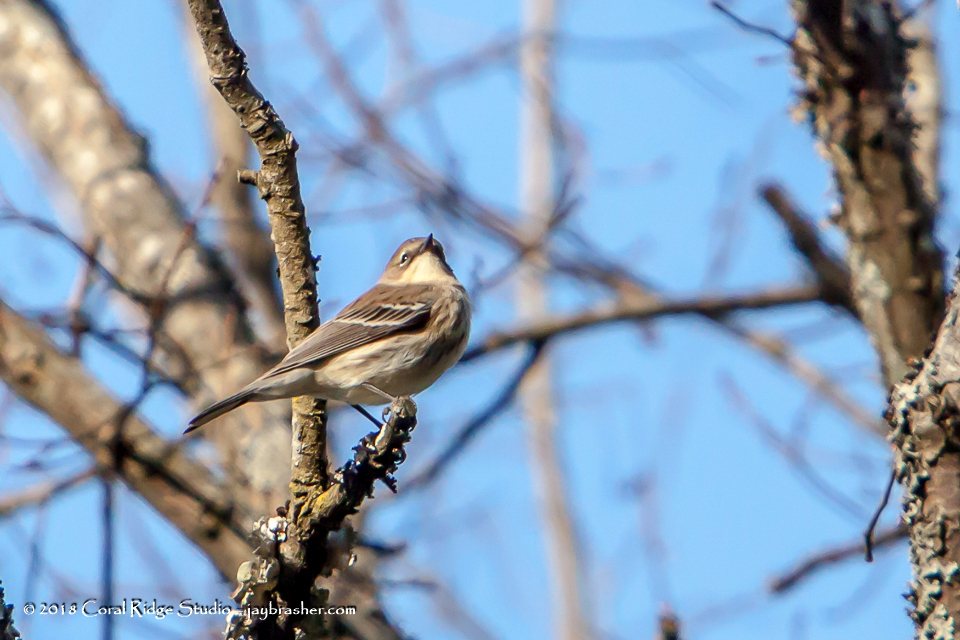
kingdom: Animalia
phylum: Chordata
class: Aves
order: Passeriformes
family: Parulidae
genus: Setophaga
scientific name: Setophaga coronata
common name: Myrtle warbler
